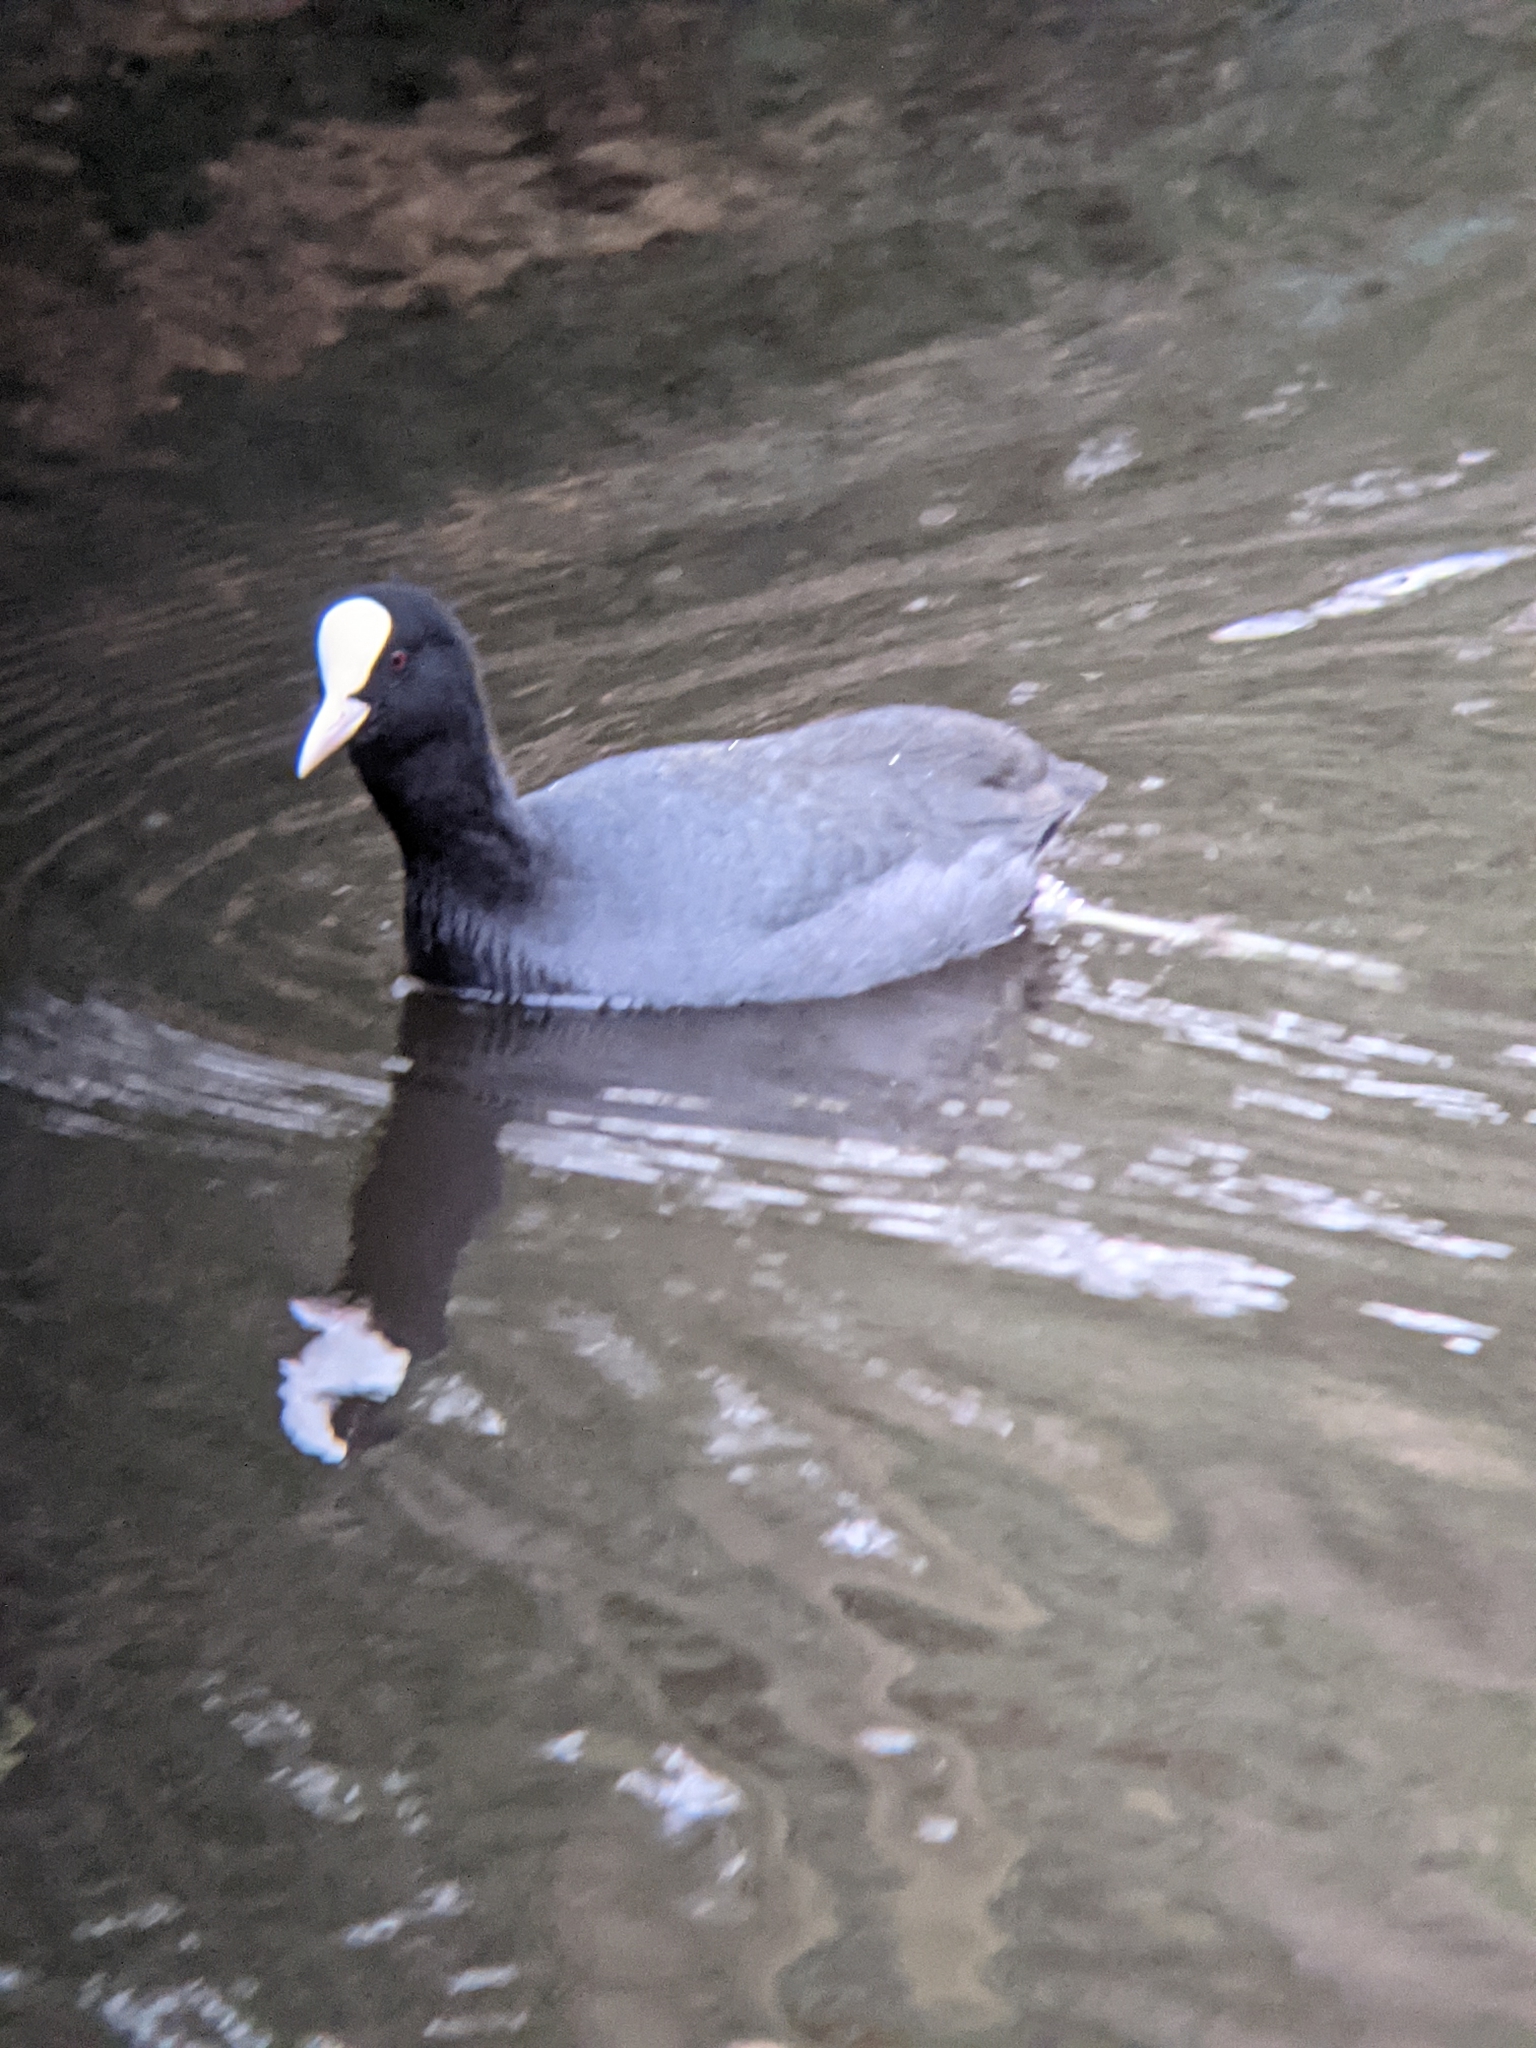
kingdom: Animalia
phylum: Chordata
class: Aves
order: Gruiformes
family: Rallidae
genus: Fulica
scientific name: Fulica atra
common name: Eurasian coot
